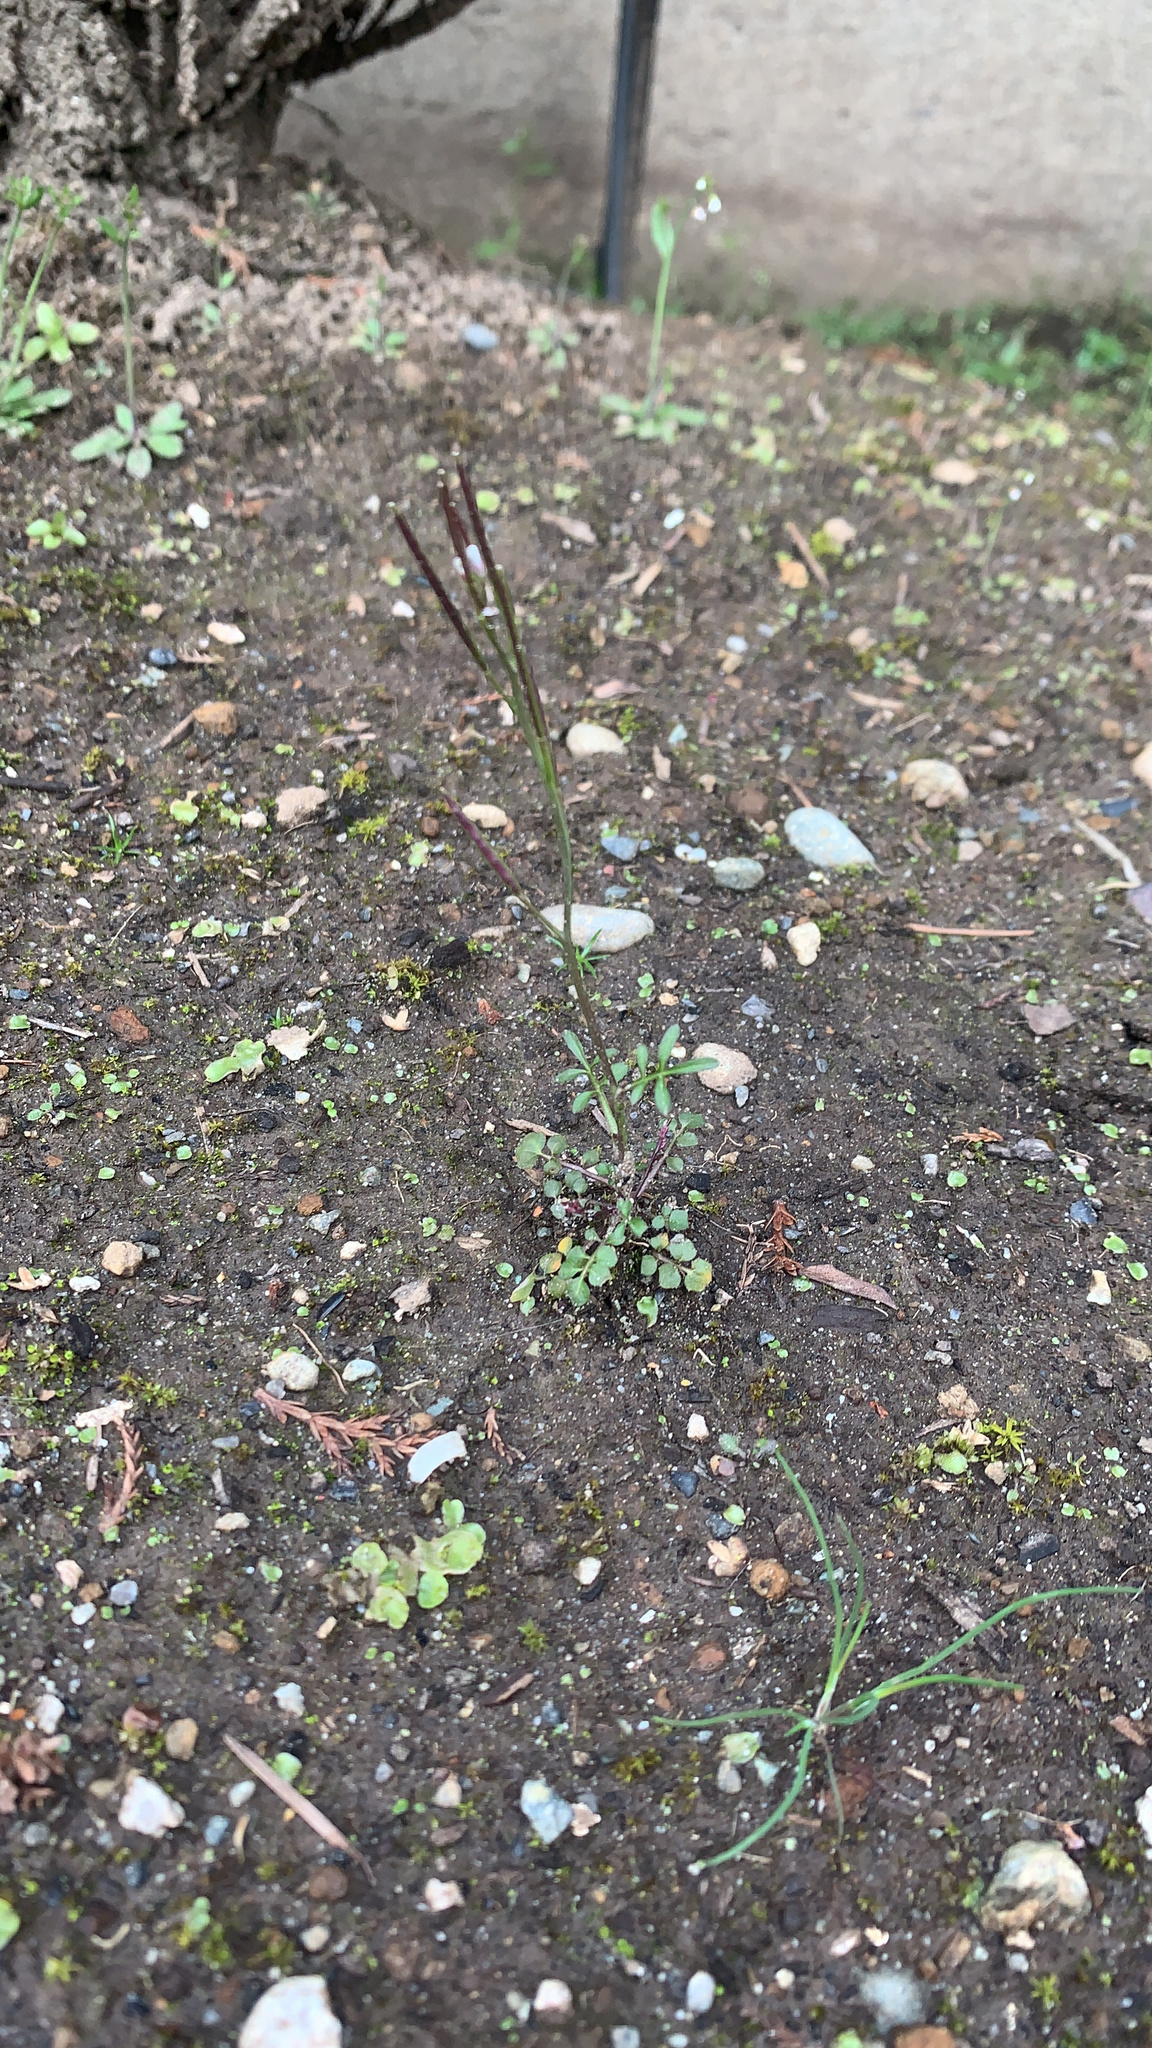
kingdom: Plantae
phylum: Tracheophyta
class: Magnoliopsida
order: Brassicales
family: Brassicaceae
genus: Cardamine
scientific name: Cardamine hirsuta
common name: Hairy bittercress
